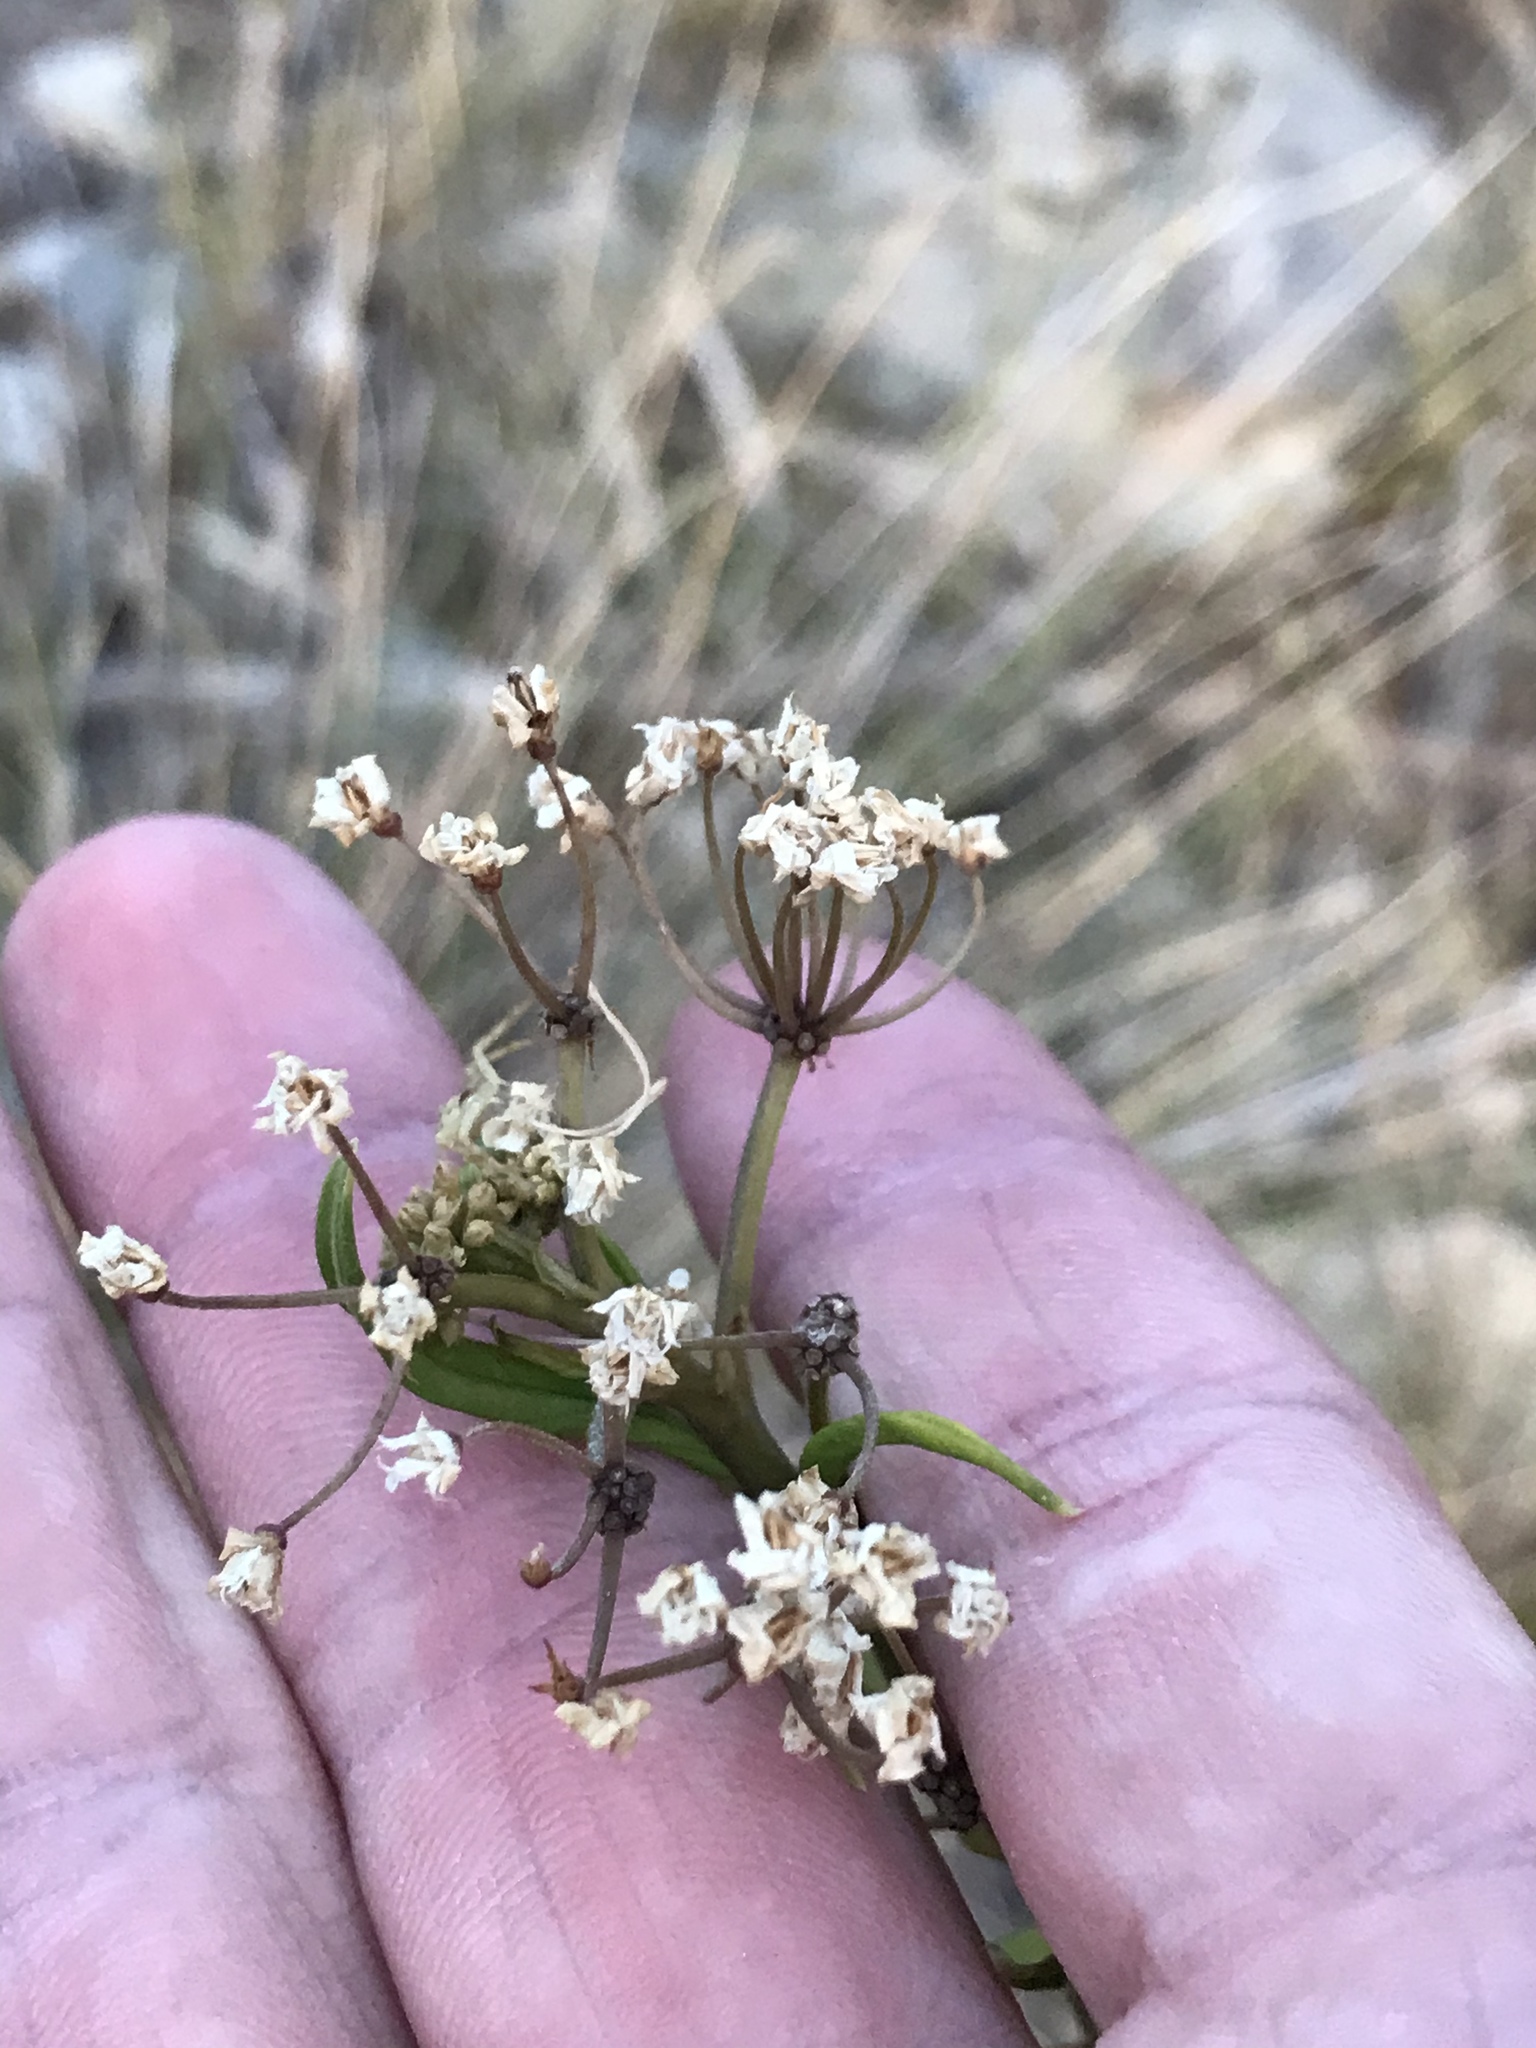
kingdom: Plantae
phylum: Tracheophyta
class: Magnoliopsida
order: Gentianales
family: Apocynaceae
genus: Asclepias
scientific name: Asclepias texana
